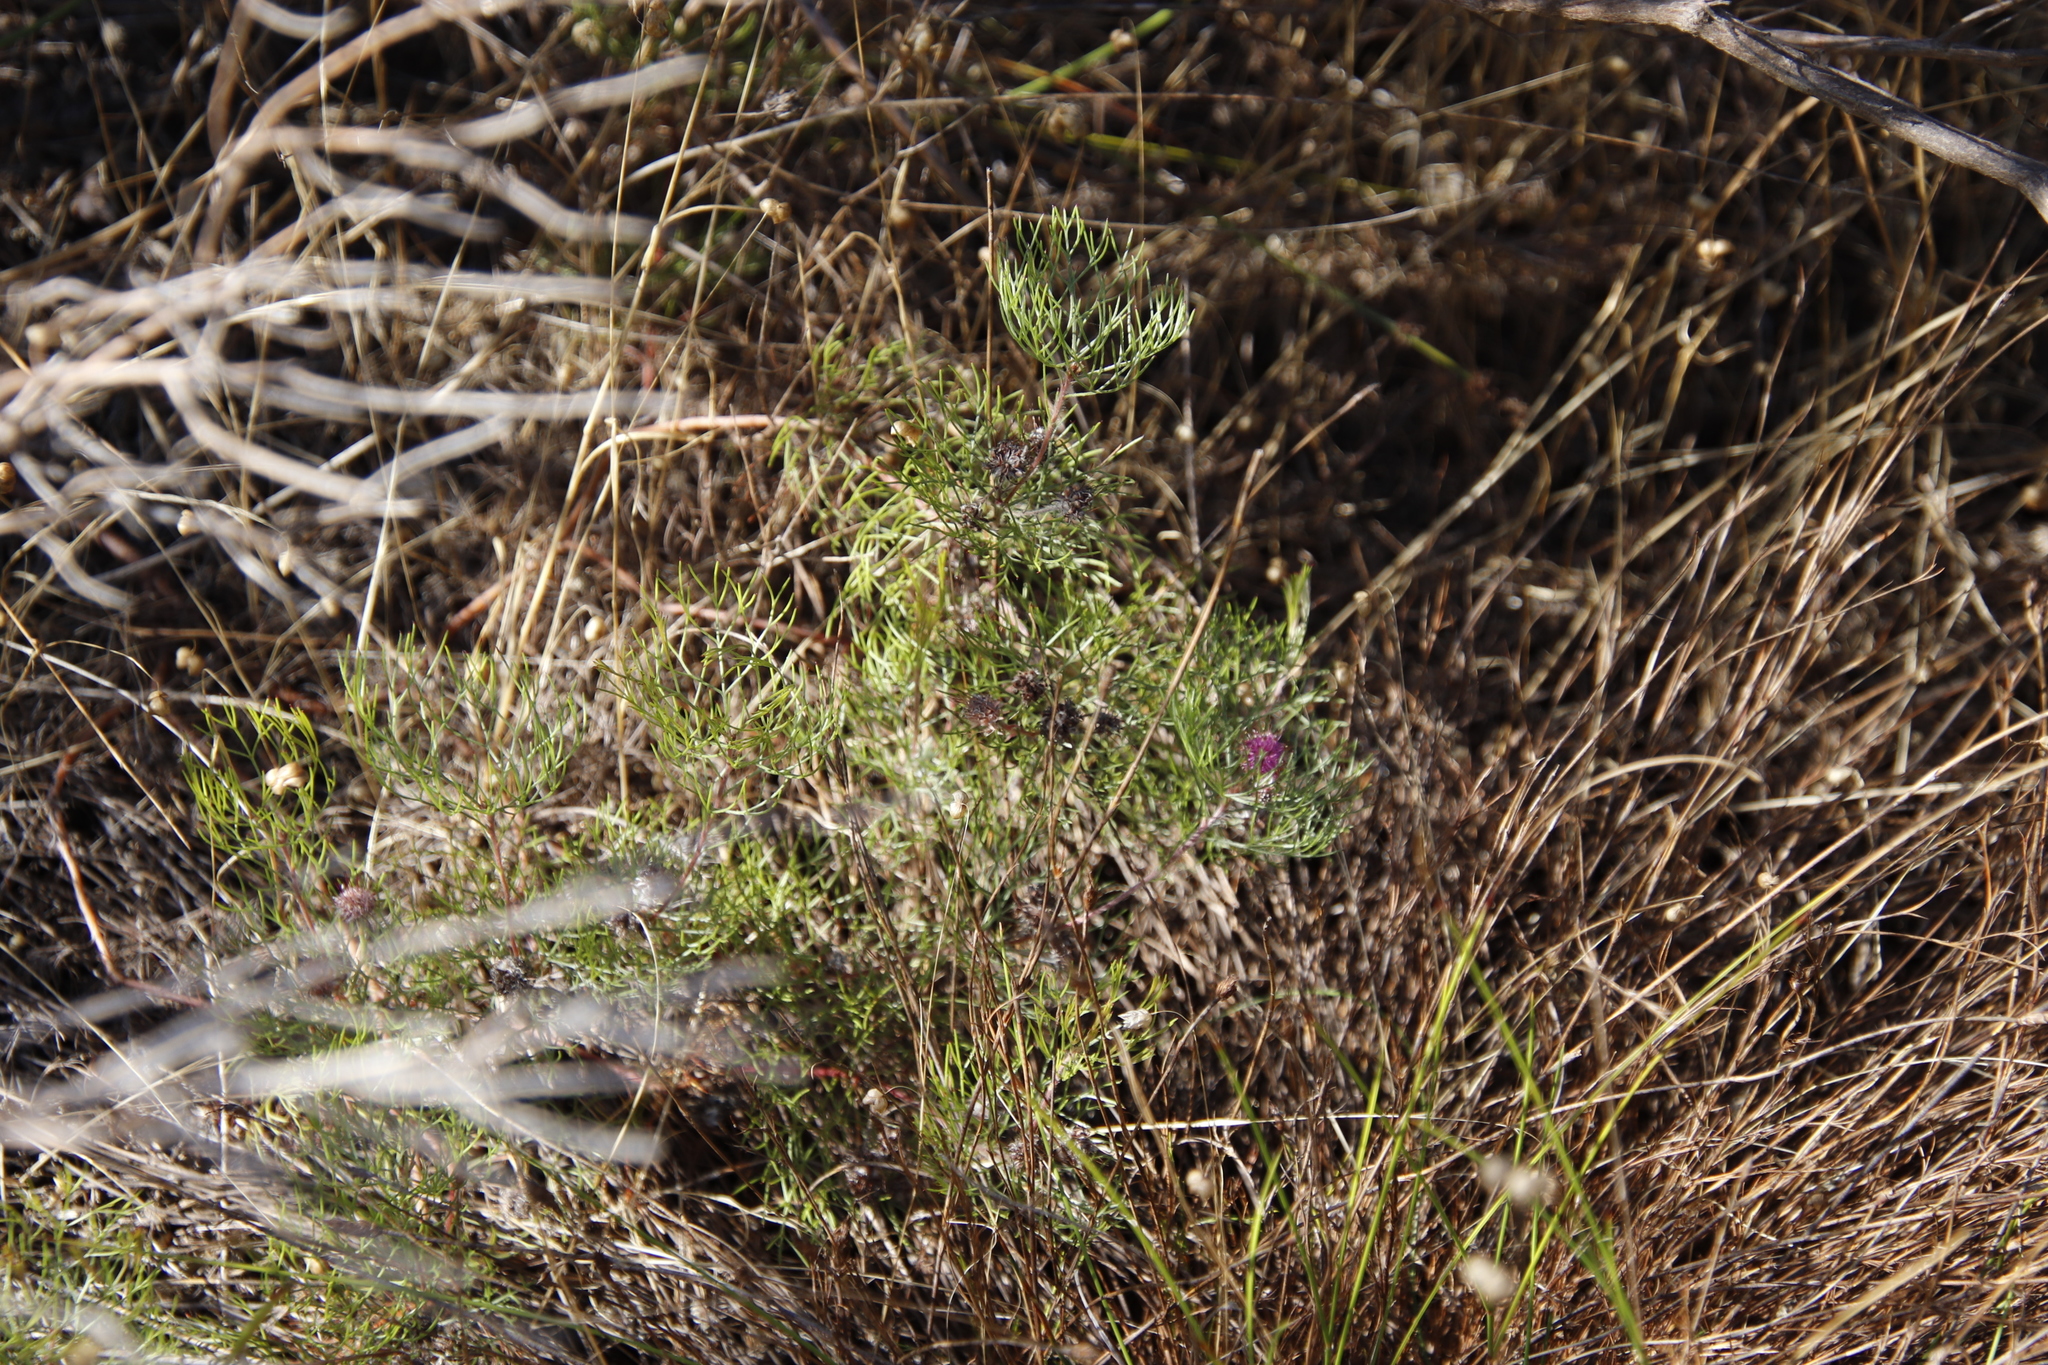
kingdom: Plantae
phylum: Tracheophyta
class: Magnoliopsida
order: Proteales
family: Proteaceae
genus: Serruria
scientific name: Serruria fasciflora
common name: Common pin spiderhead
